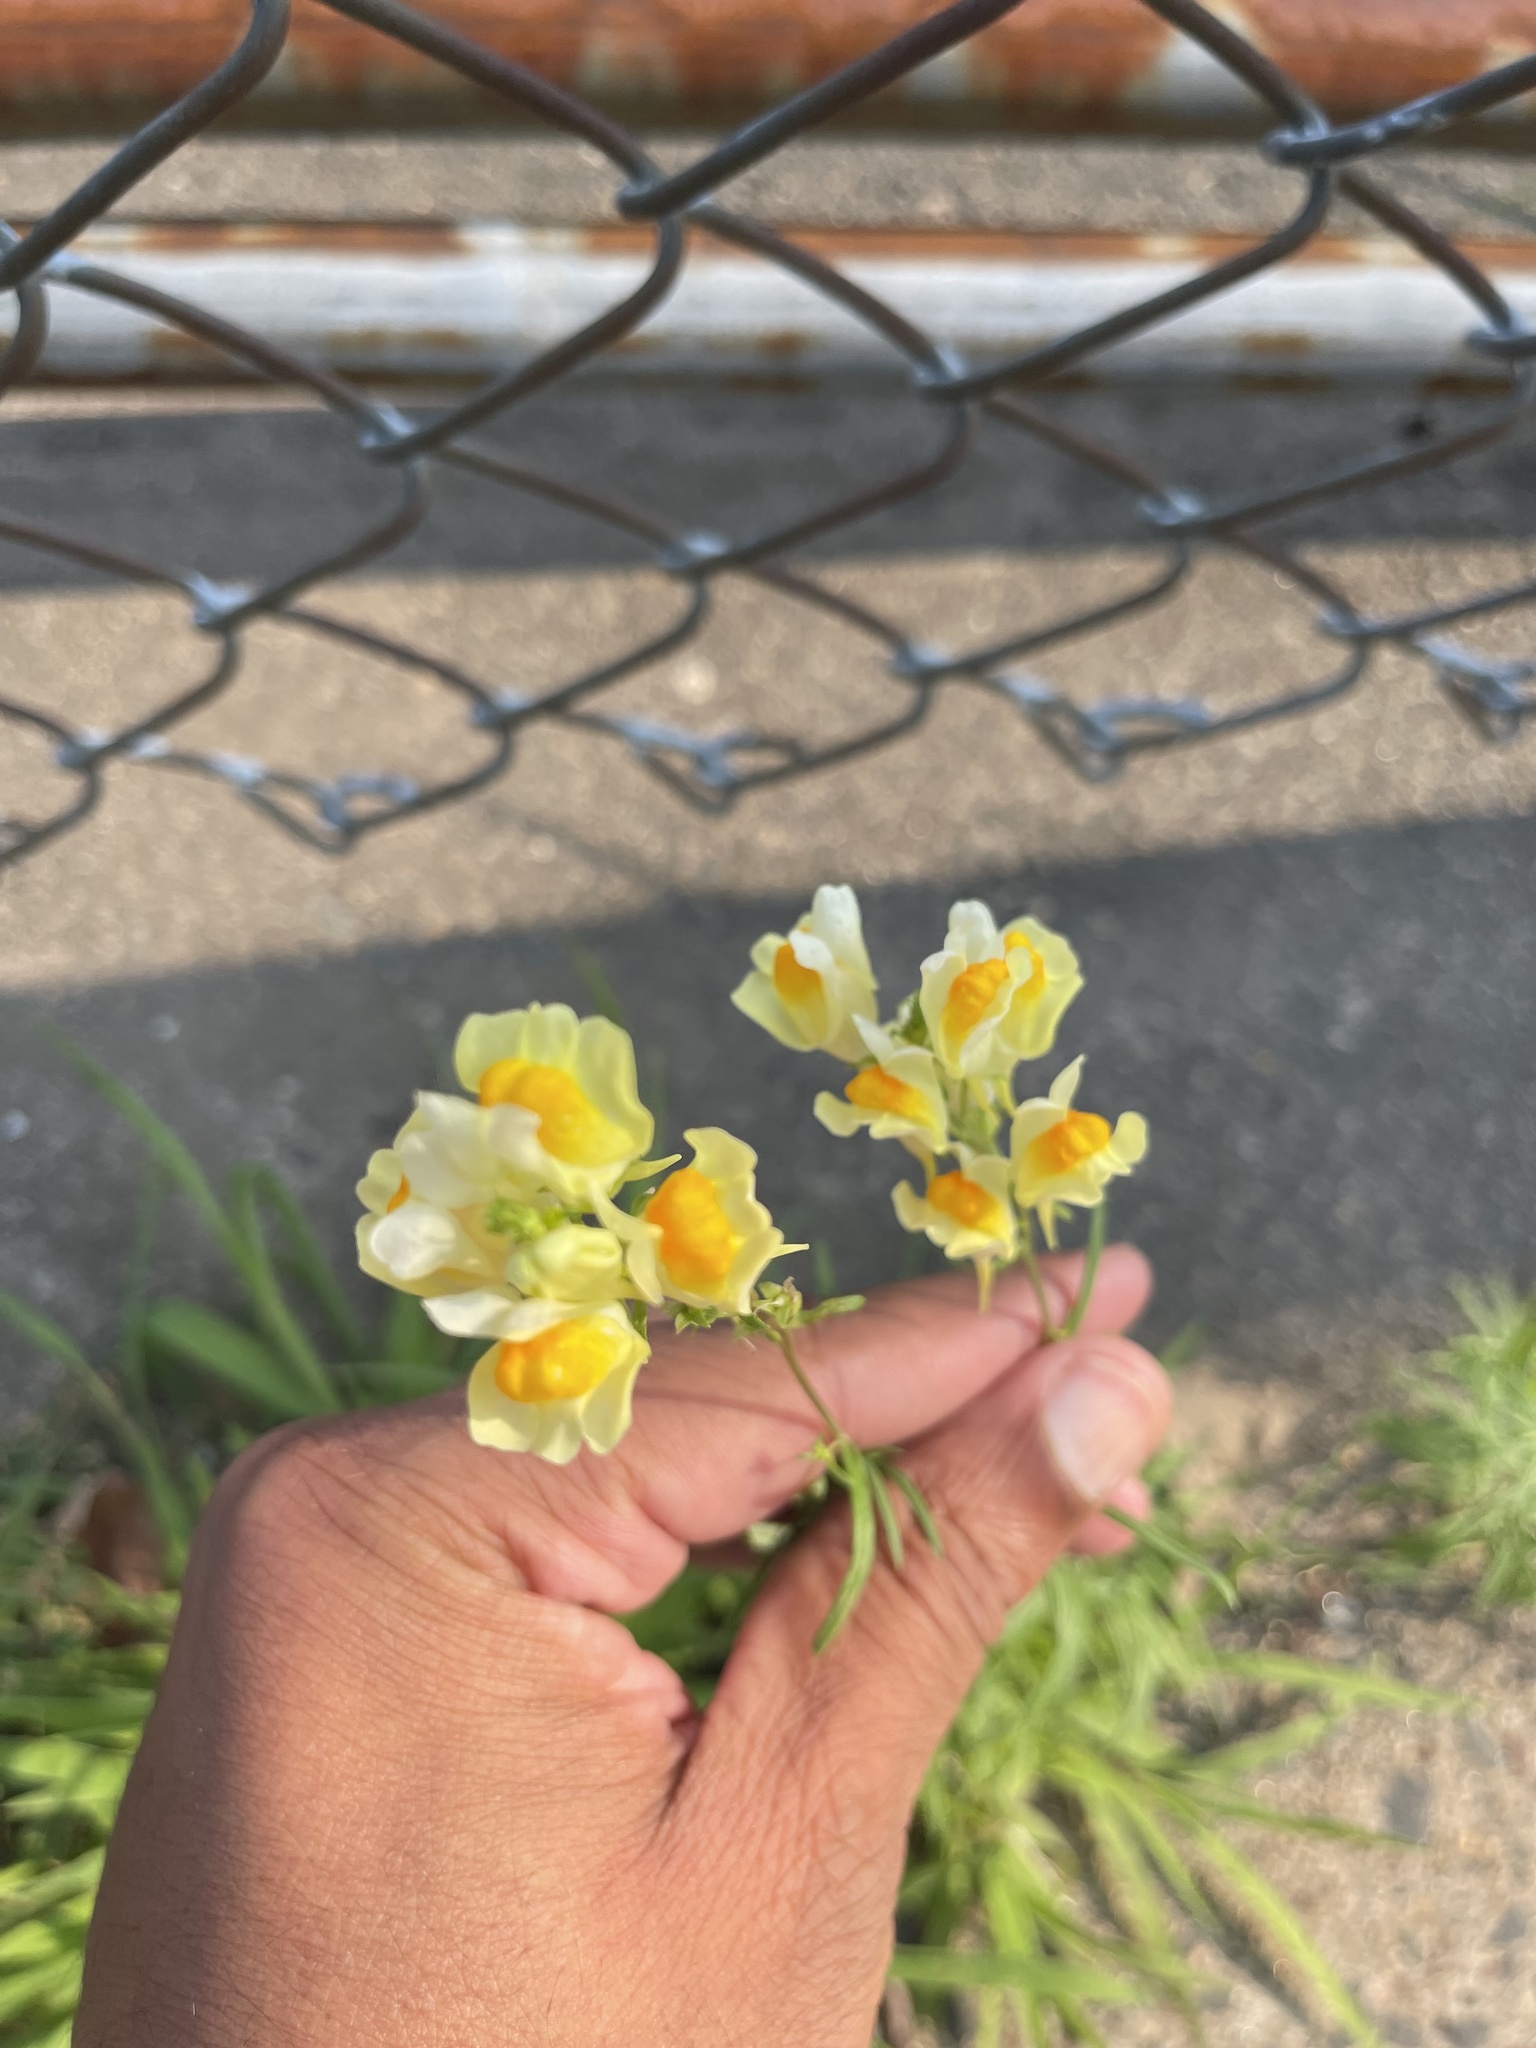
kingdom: Plantae
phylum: Tracheophyta
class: Magnoliopsida
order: Lamiales
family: Plantaginaceae
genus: Linaria
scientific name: Linaria vulgaris
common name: Butter and eggs
